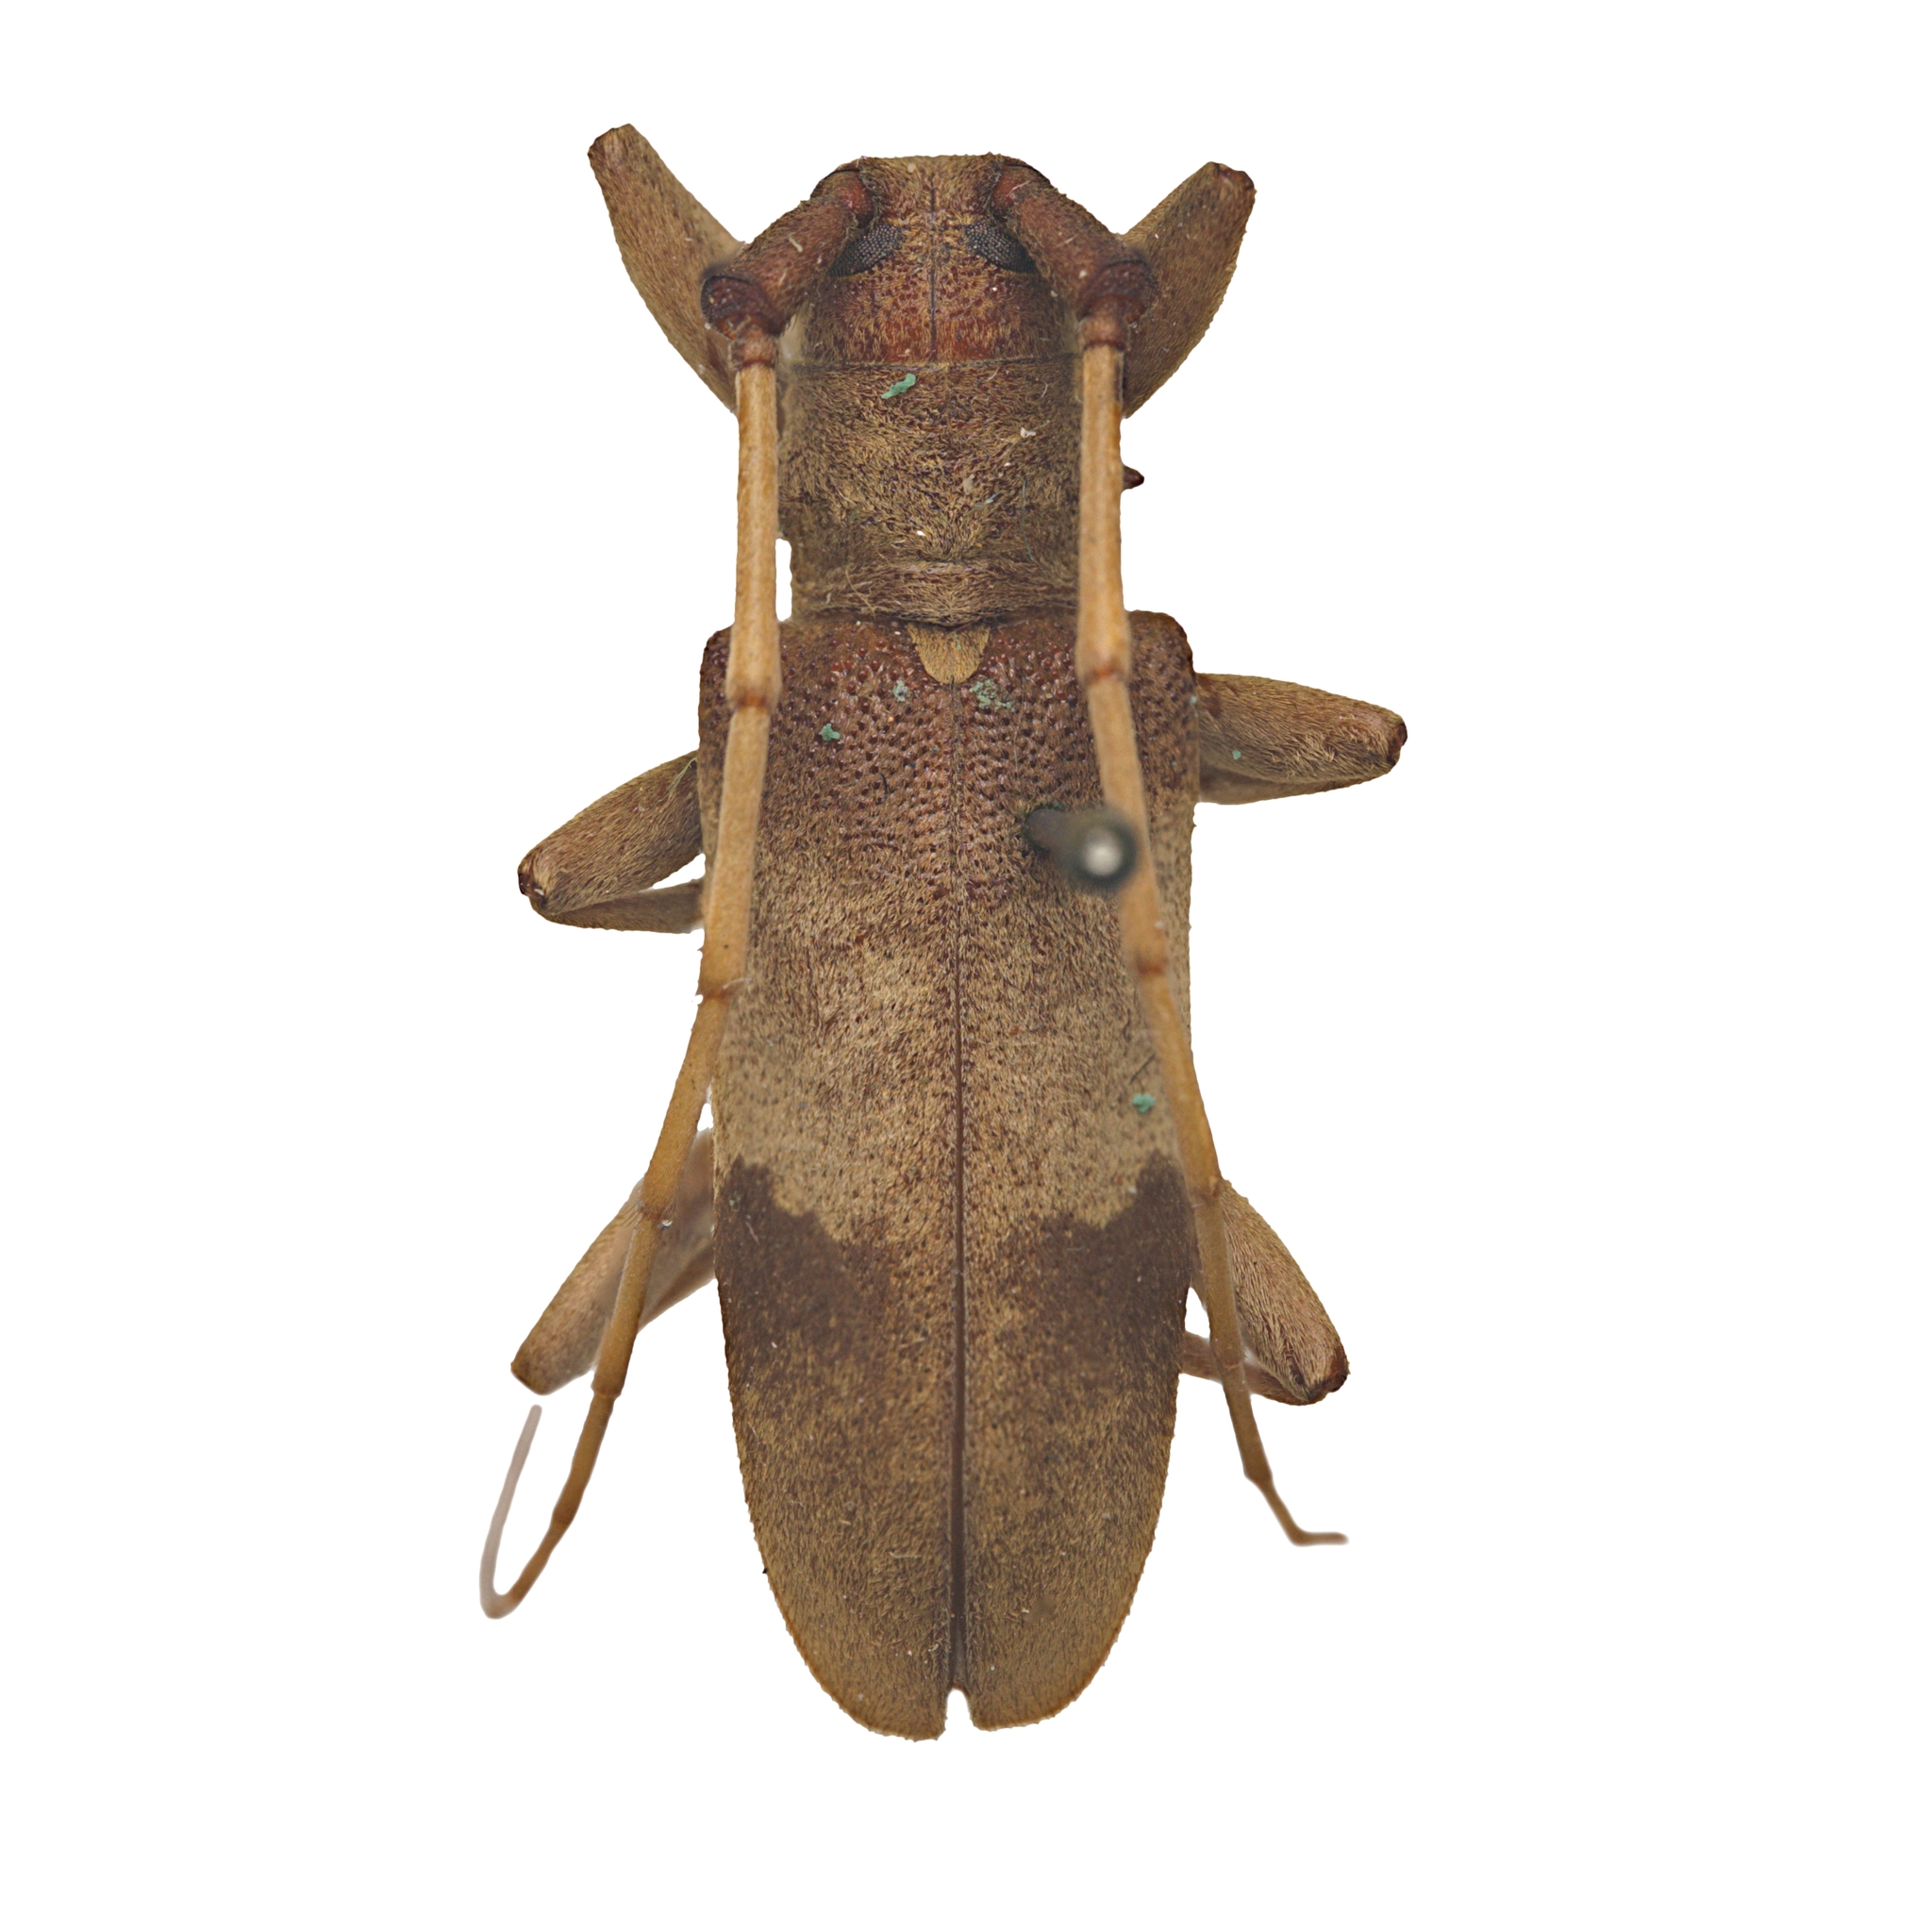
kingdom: Animalia
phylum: Arthropoda
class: Insecta
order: Coleoptera
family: Cerambycidae
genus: Goes
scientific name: Goes pulcher
